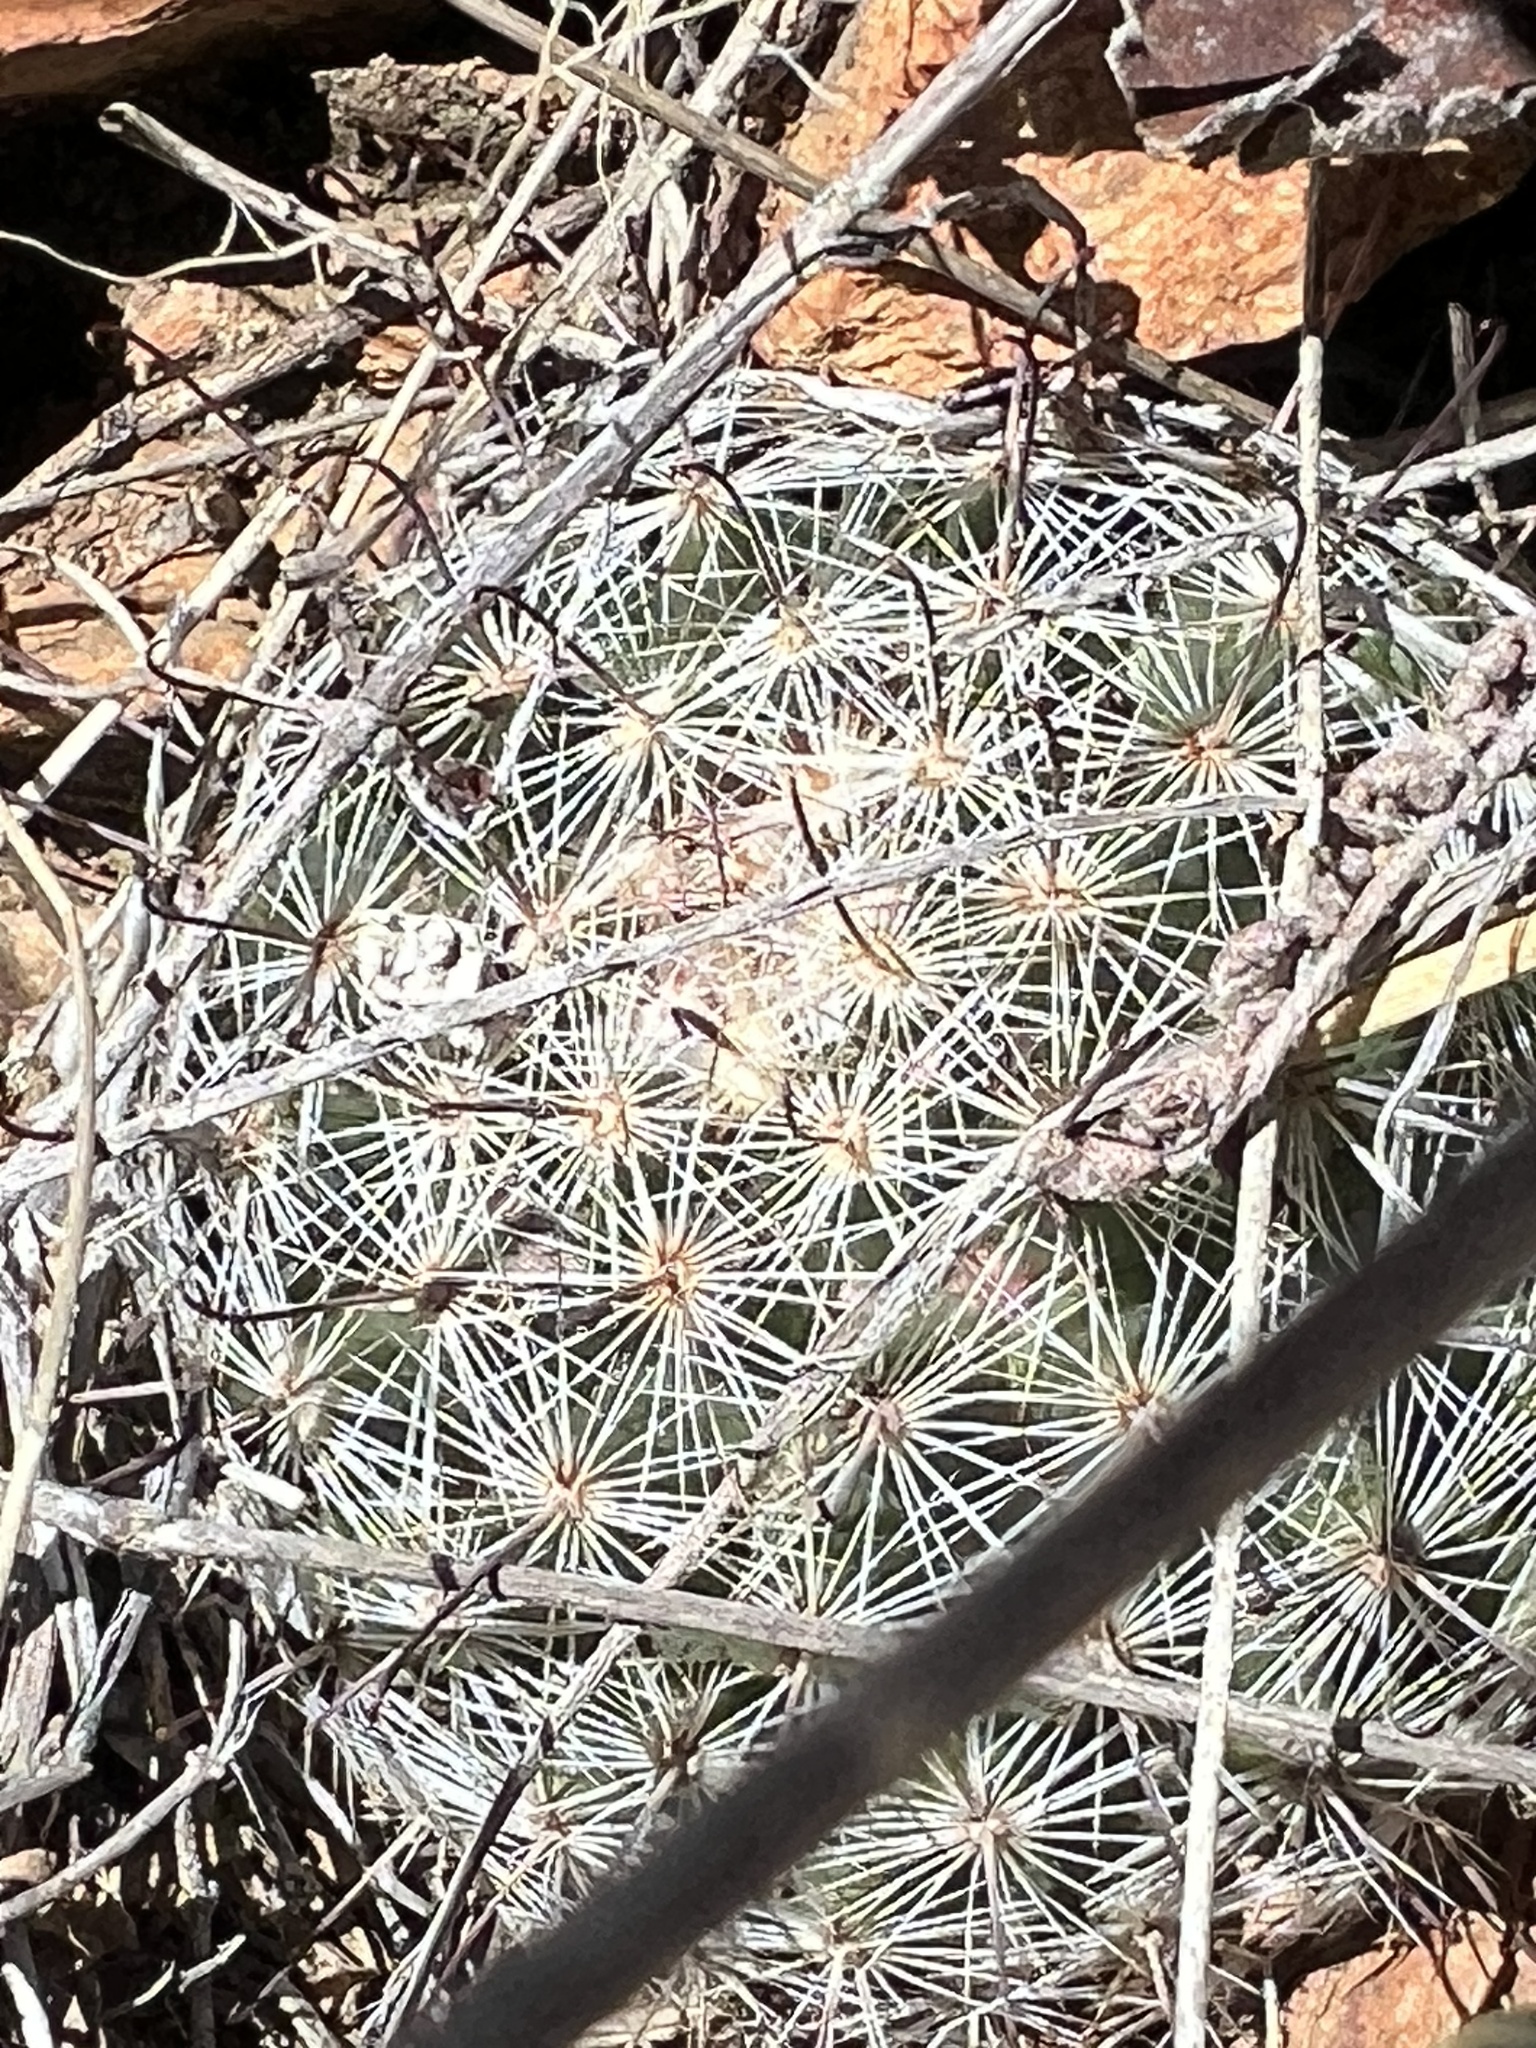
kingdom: Plantae
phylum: Tracheophyta
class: Magnoliopsida
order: Caryophyllales
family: Cactaceae
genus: Cochemiea
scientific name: Cochemiea grahamii
